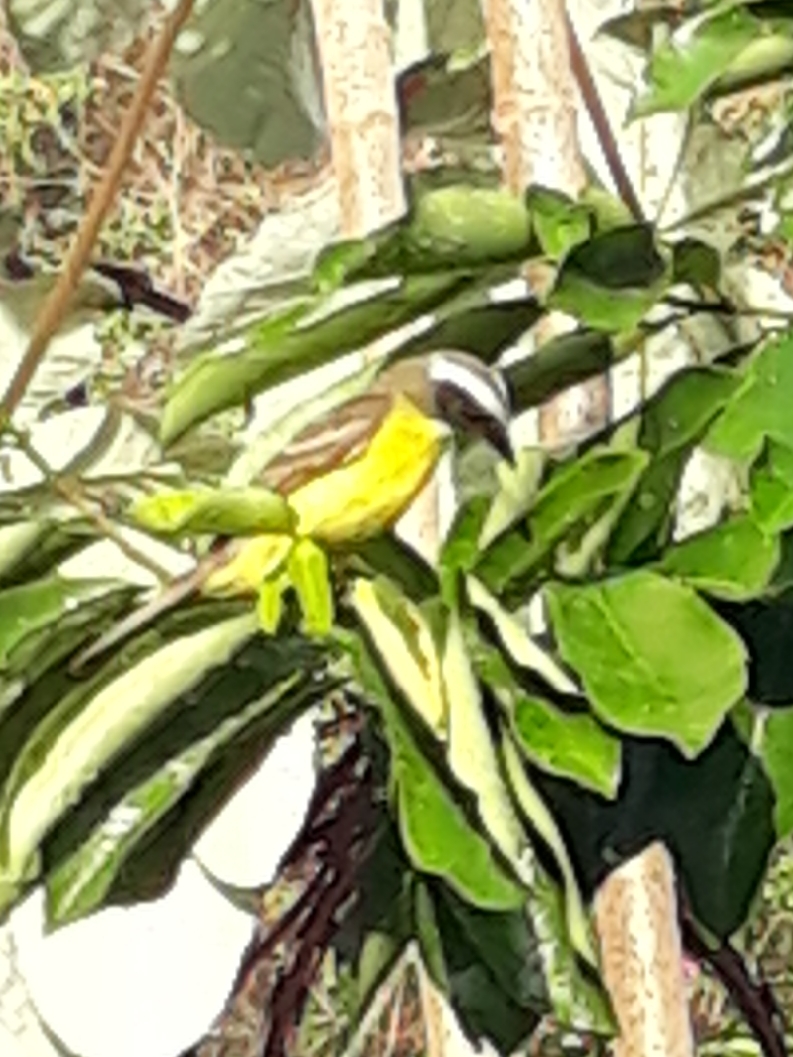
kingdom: Animalia
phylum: Chordata
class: Aves
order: Passeriformes
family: Tyrannidae
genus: Myiozetetes
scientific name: Myiozetetes similis
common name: Social flycatcher
